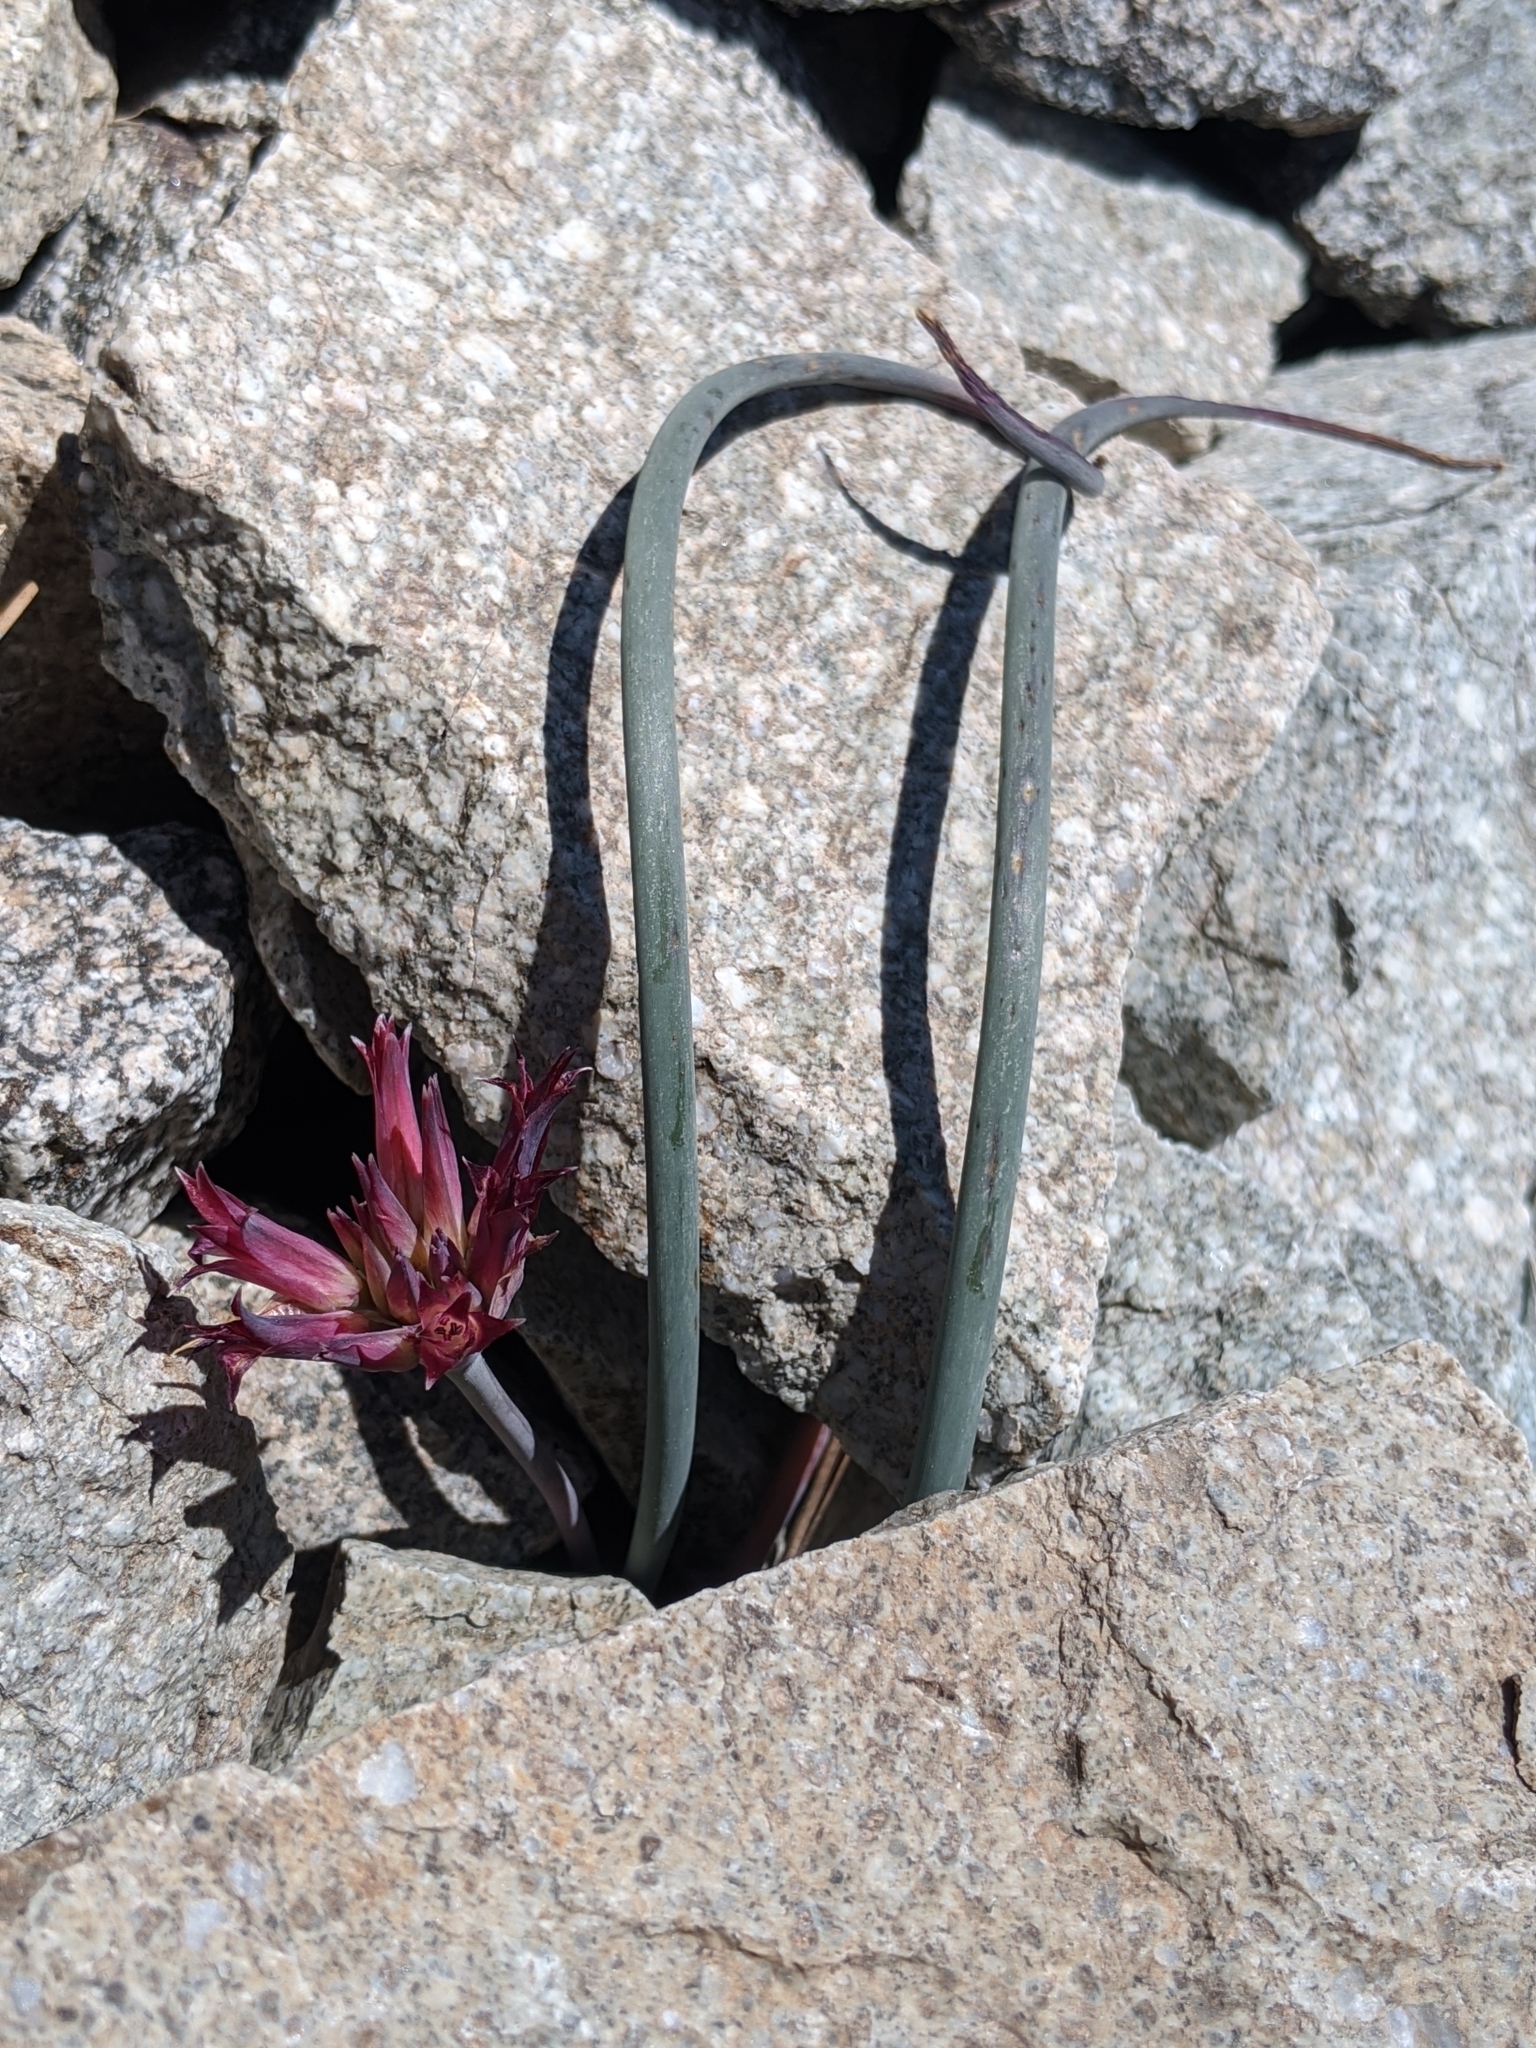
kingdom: Plantae
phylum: Tracheophyta
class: Liliopsida
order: Asparagales
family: Amaryllidaceae
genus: Allium
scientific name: Allium monticola
